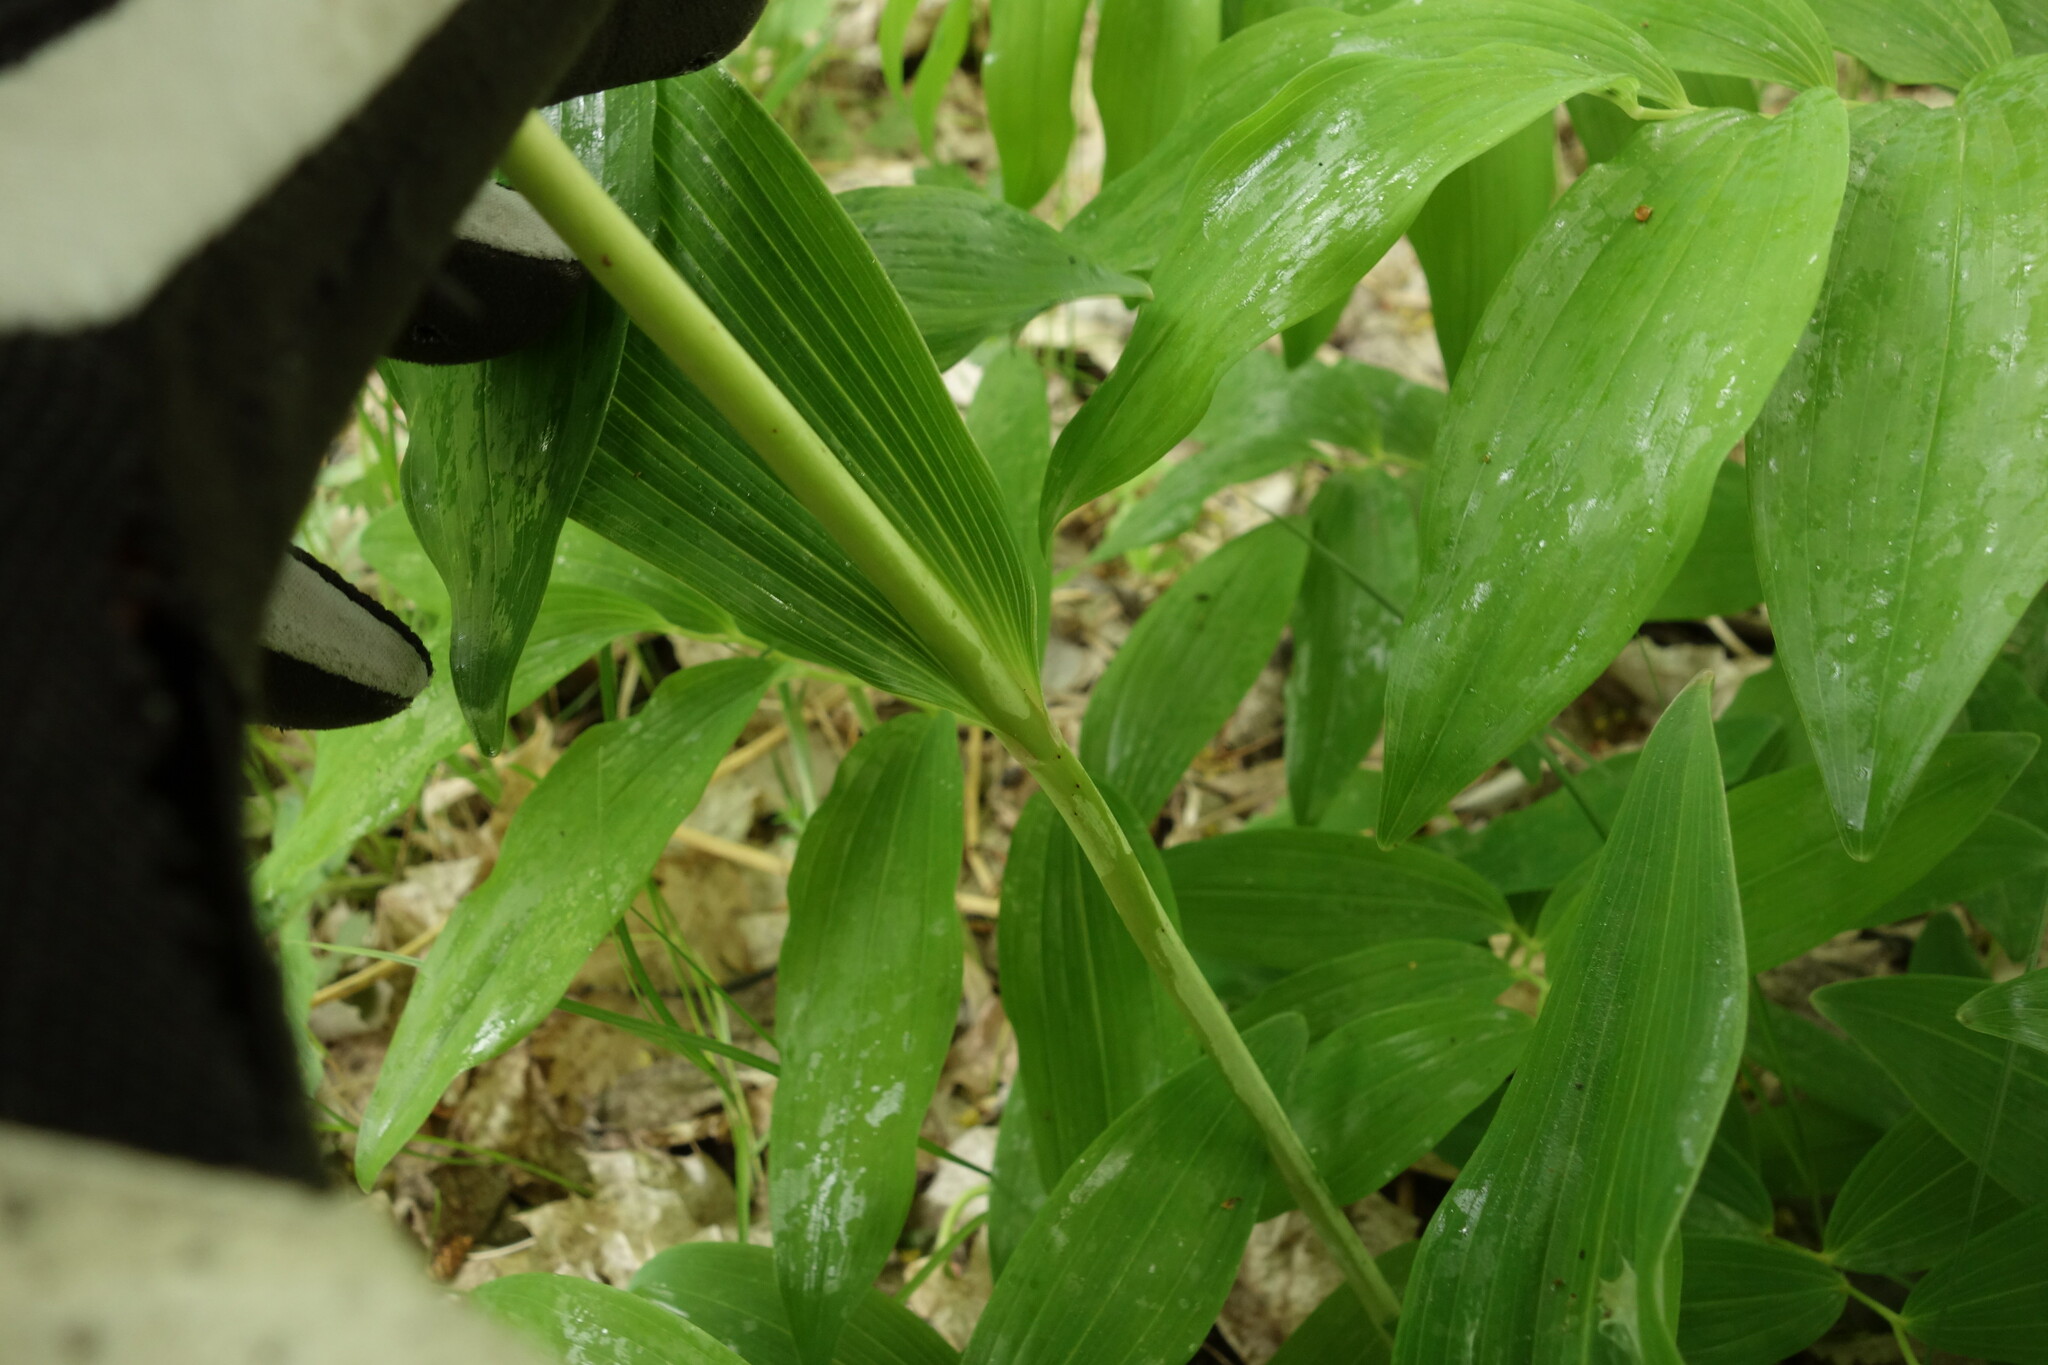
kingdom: Plantae
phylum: Tracheophyta
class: Liliopsida
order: Asparagales
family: Asparagaceae
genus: Polygonatum
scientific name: Polygonatum multiflorum
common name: Solomon's-seal
